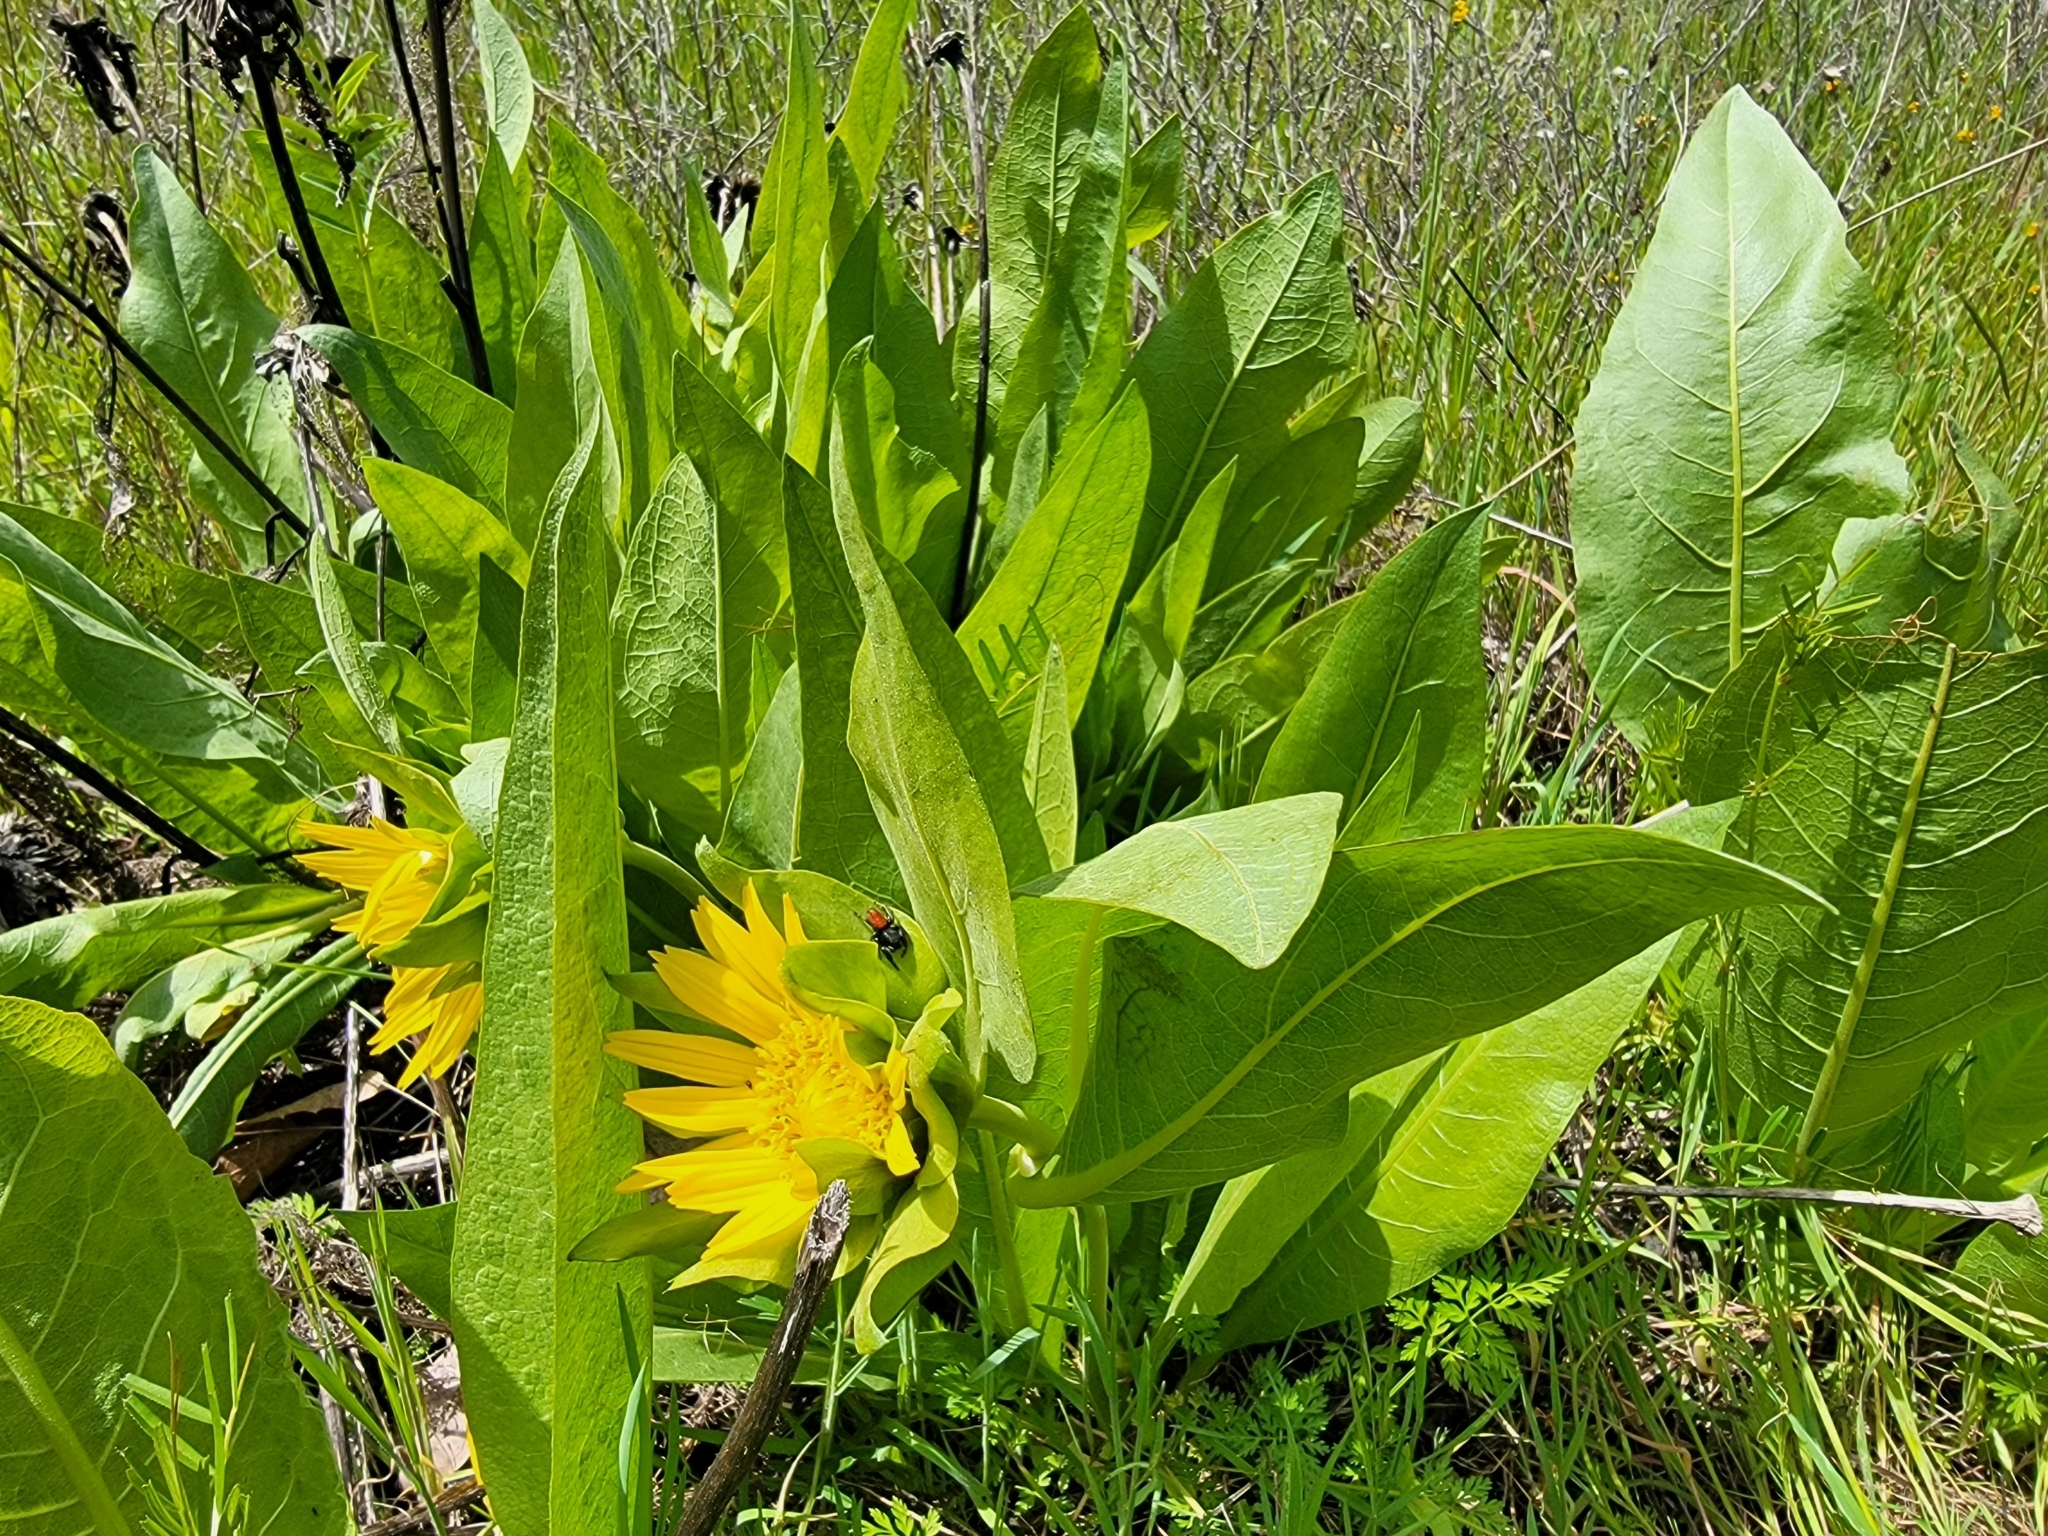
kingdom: Plantae
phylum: Tracheophyta
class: Magnoliopsida
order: Asterales
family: Asteraceae
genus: Wyethia
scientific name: Wyethia glabra
